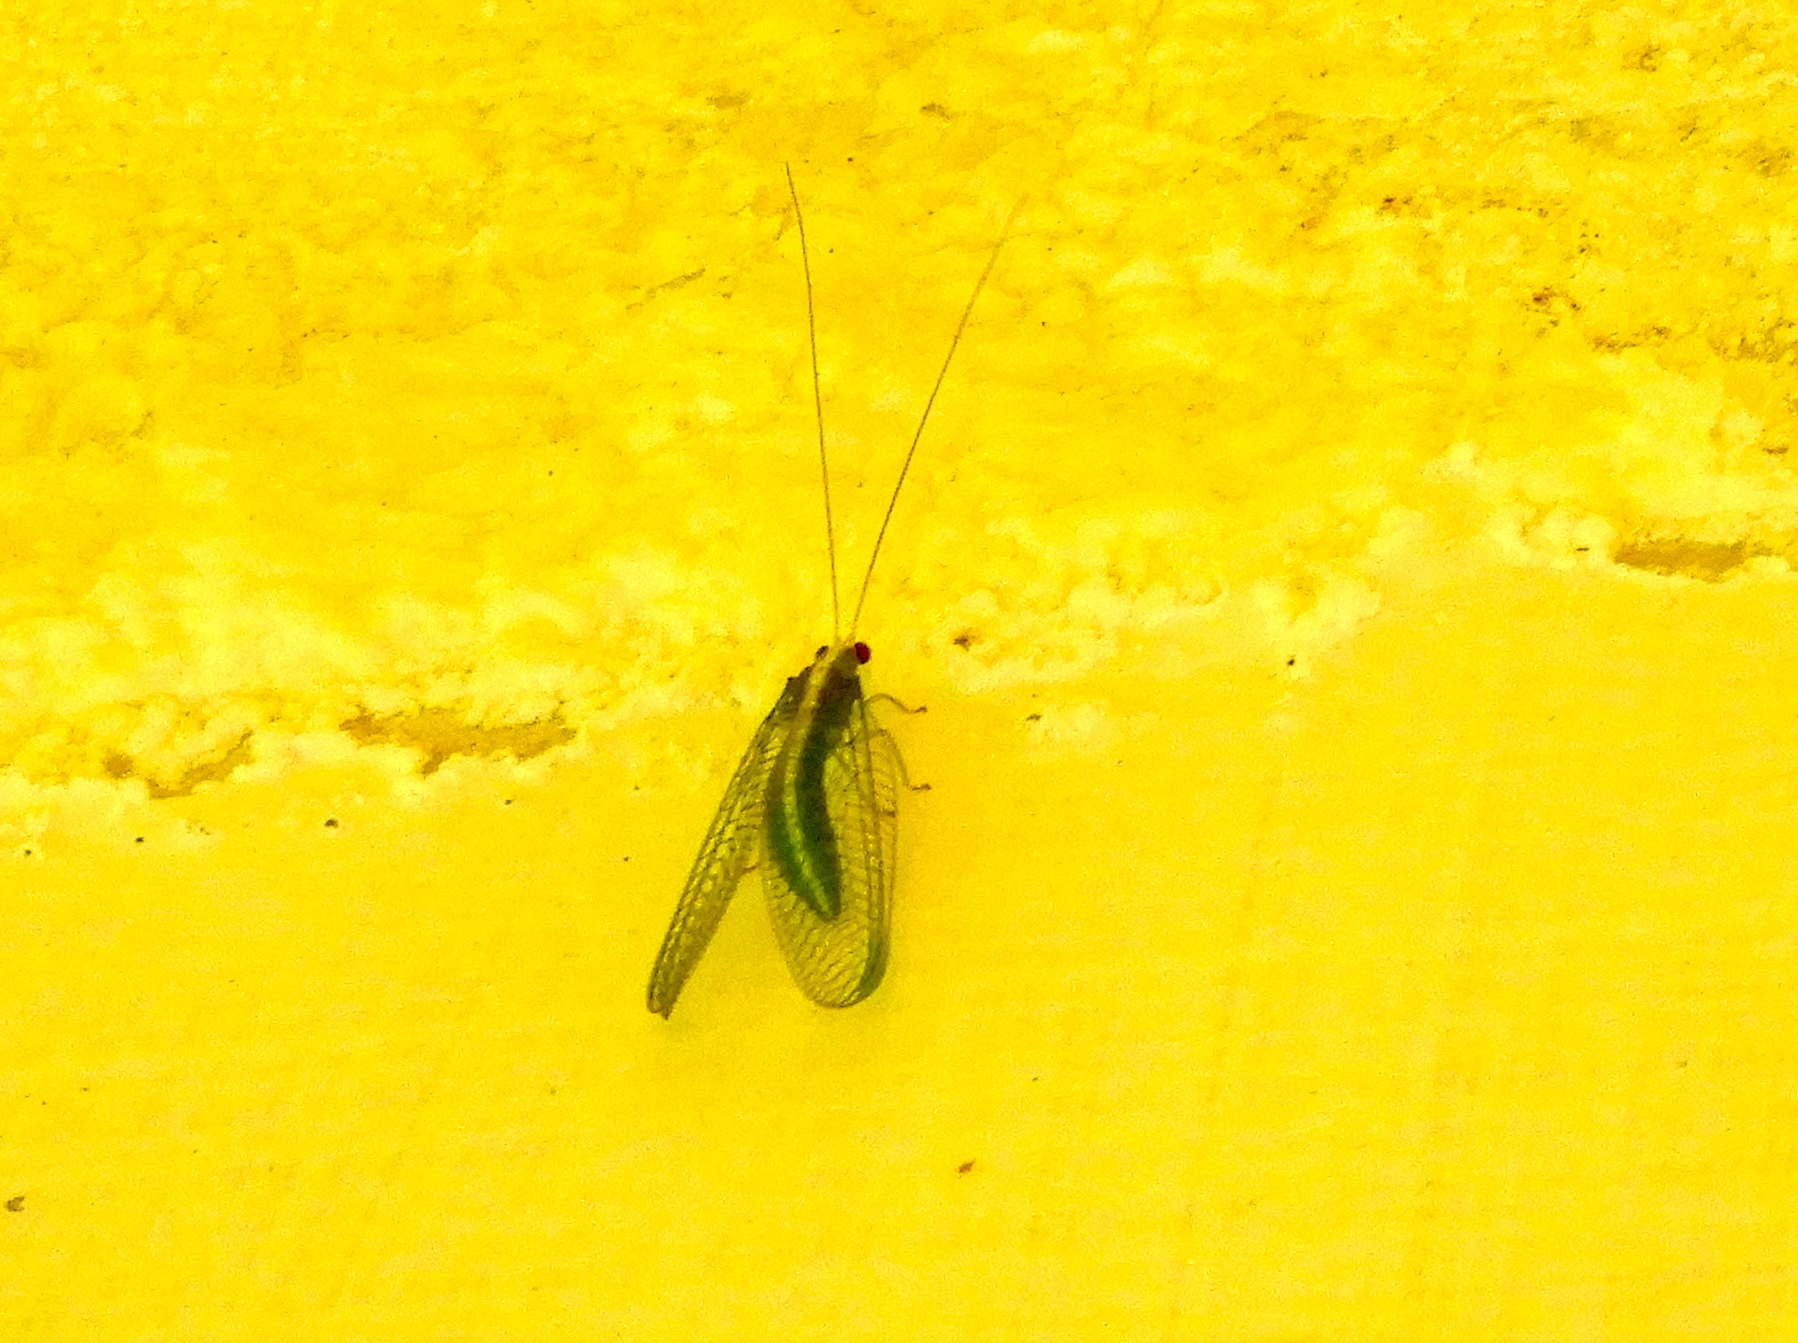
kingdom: Animalia
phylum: Arthropoda
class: Insecta
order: Neuroptera
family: Chrysopidae
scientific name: Chrysopidae
